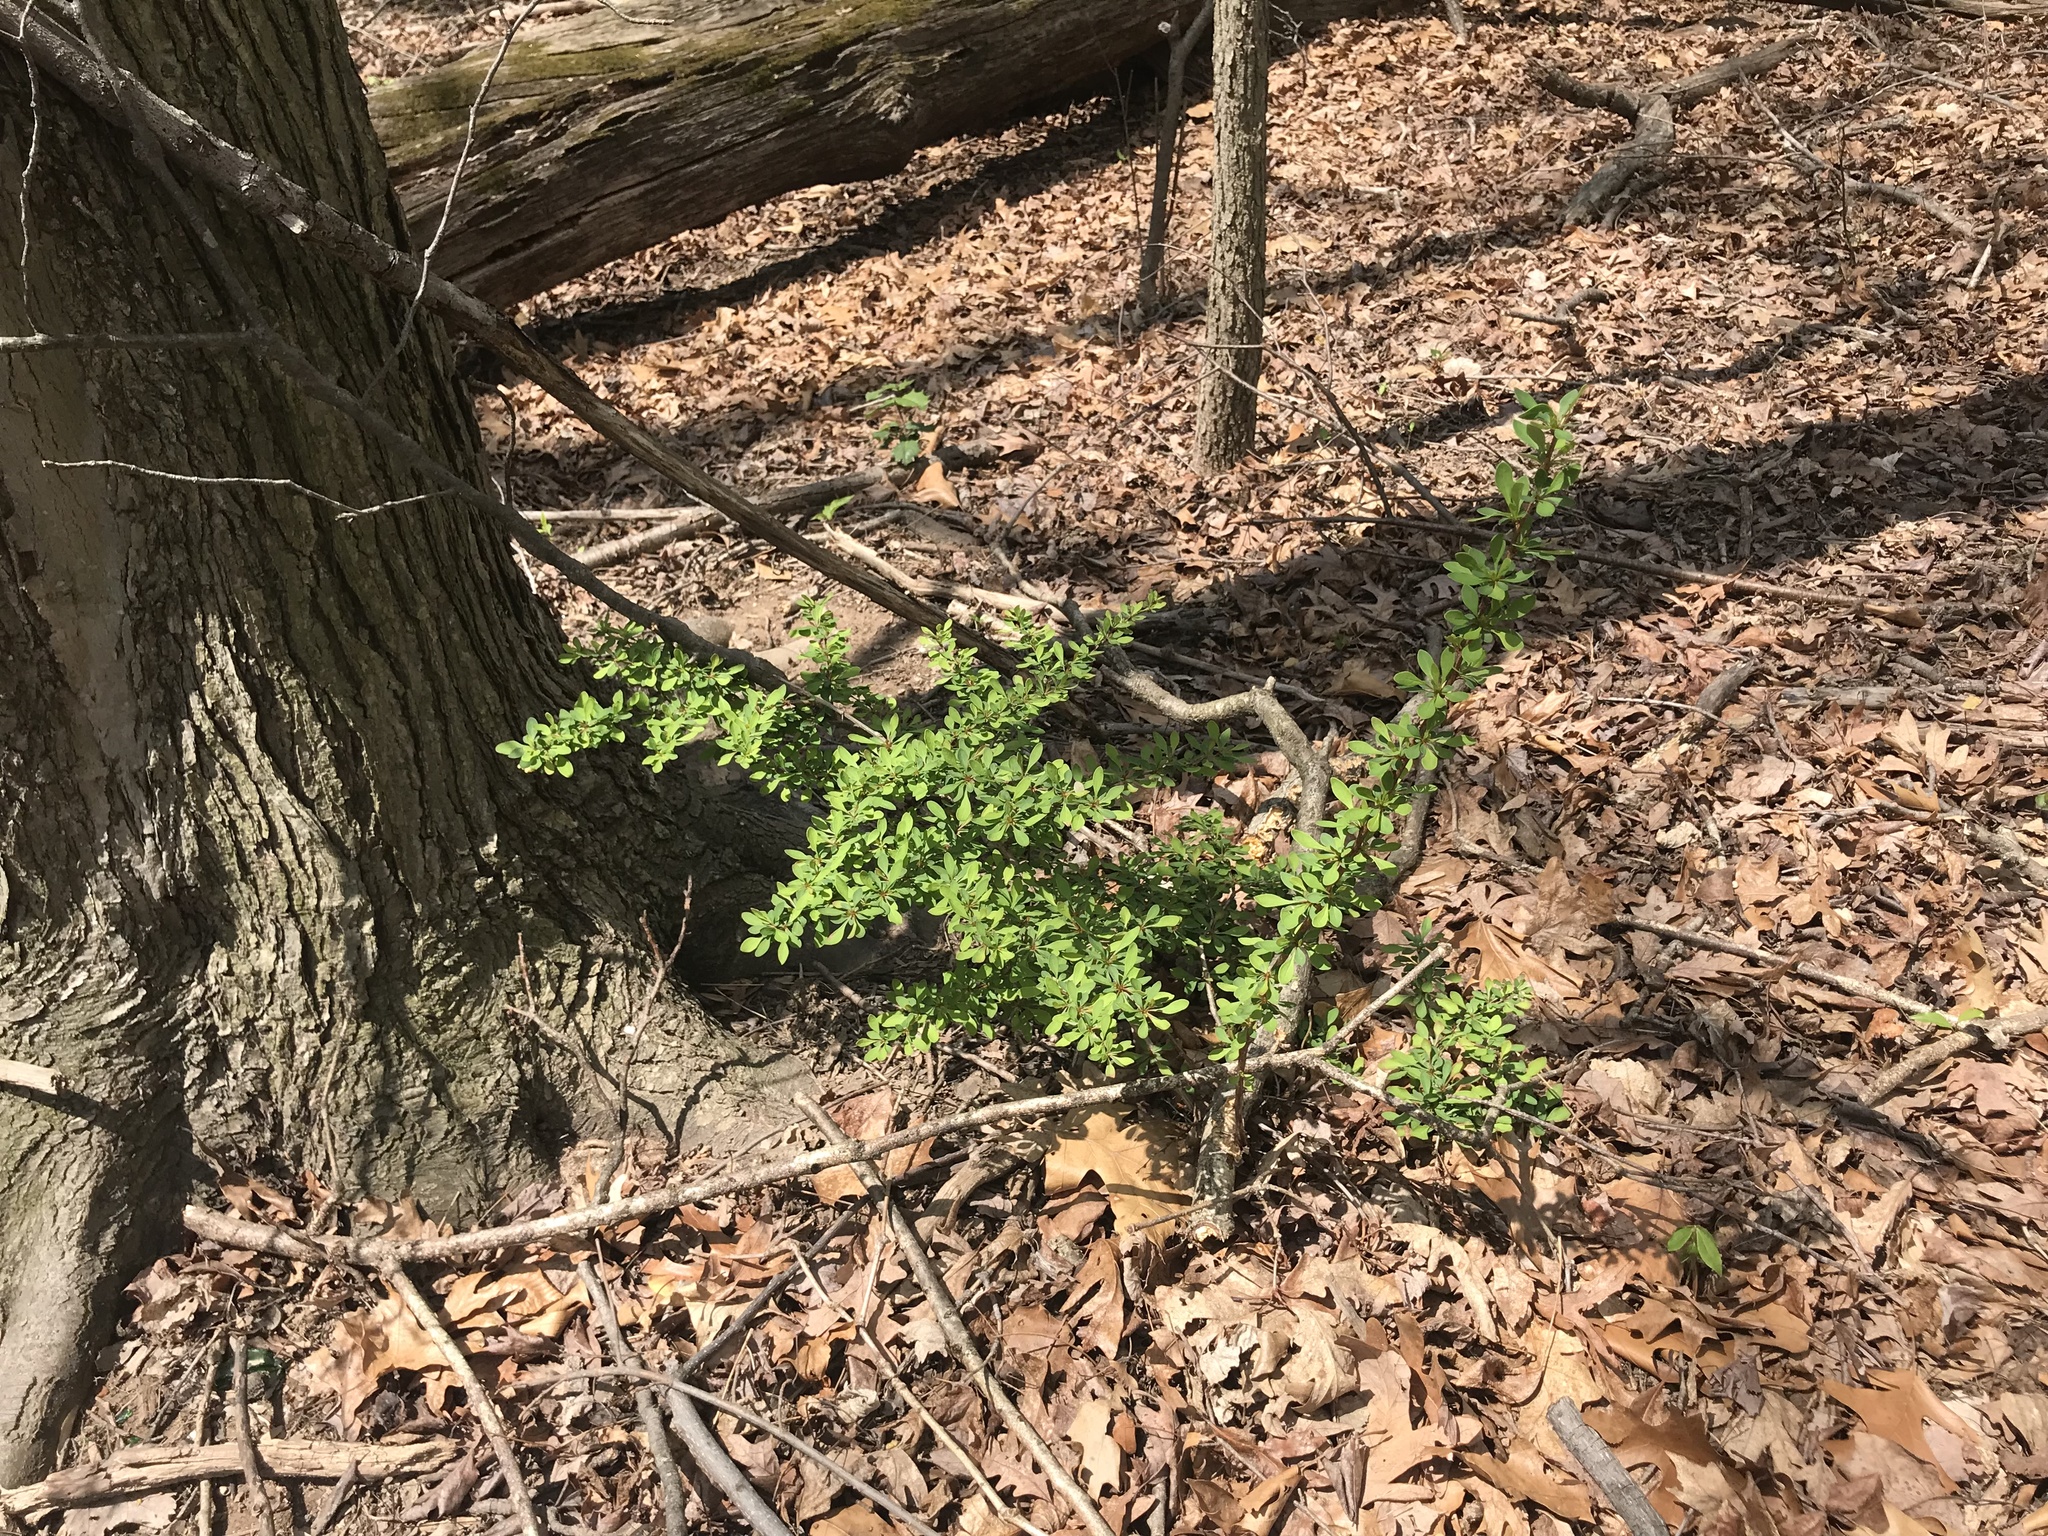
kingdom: Plantae
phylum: Tracheophyta
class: Magnoliopsida
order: Ranunculales
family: Berberidaceae
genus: Berberis
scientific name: Berberis thunbergii
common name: Japanese barberry
